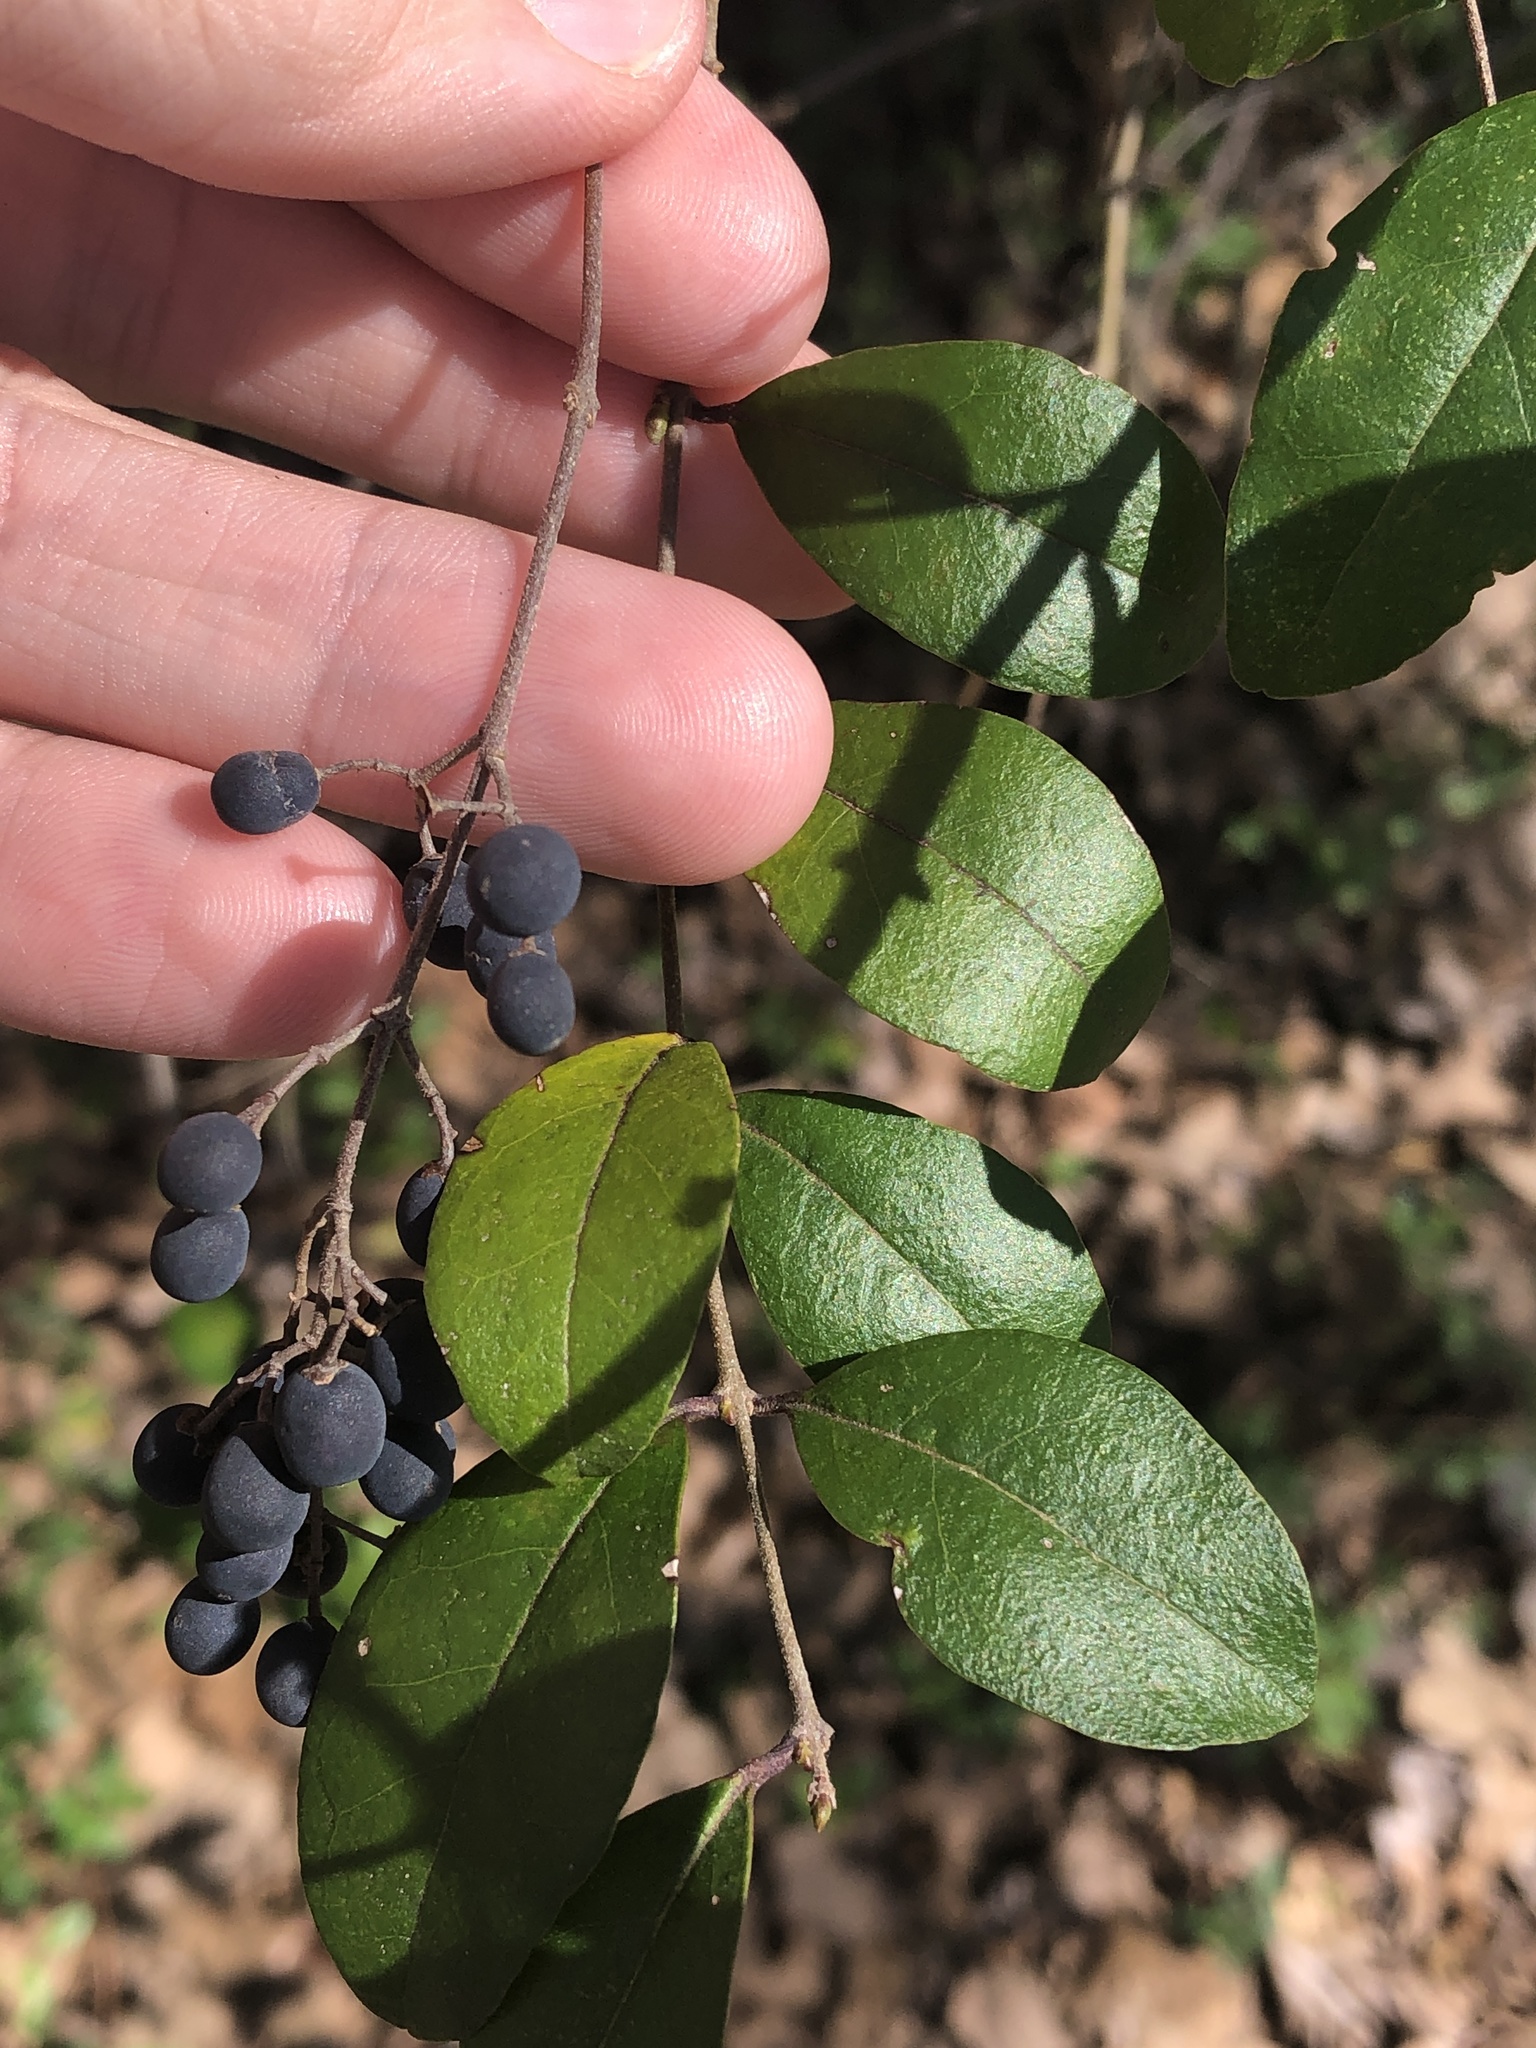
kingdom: Plantae
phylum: Tracheophyta
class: Magnoliopsida
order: Lamiales
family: Oleaceae
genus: Ligustrum
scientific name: Ligustrum sinense
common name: Chinese privet
